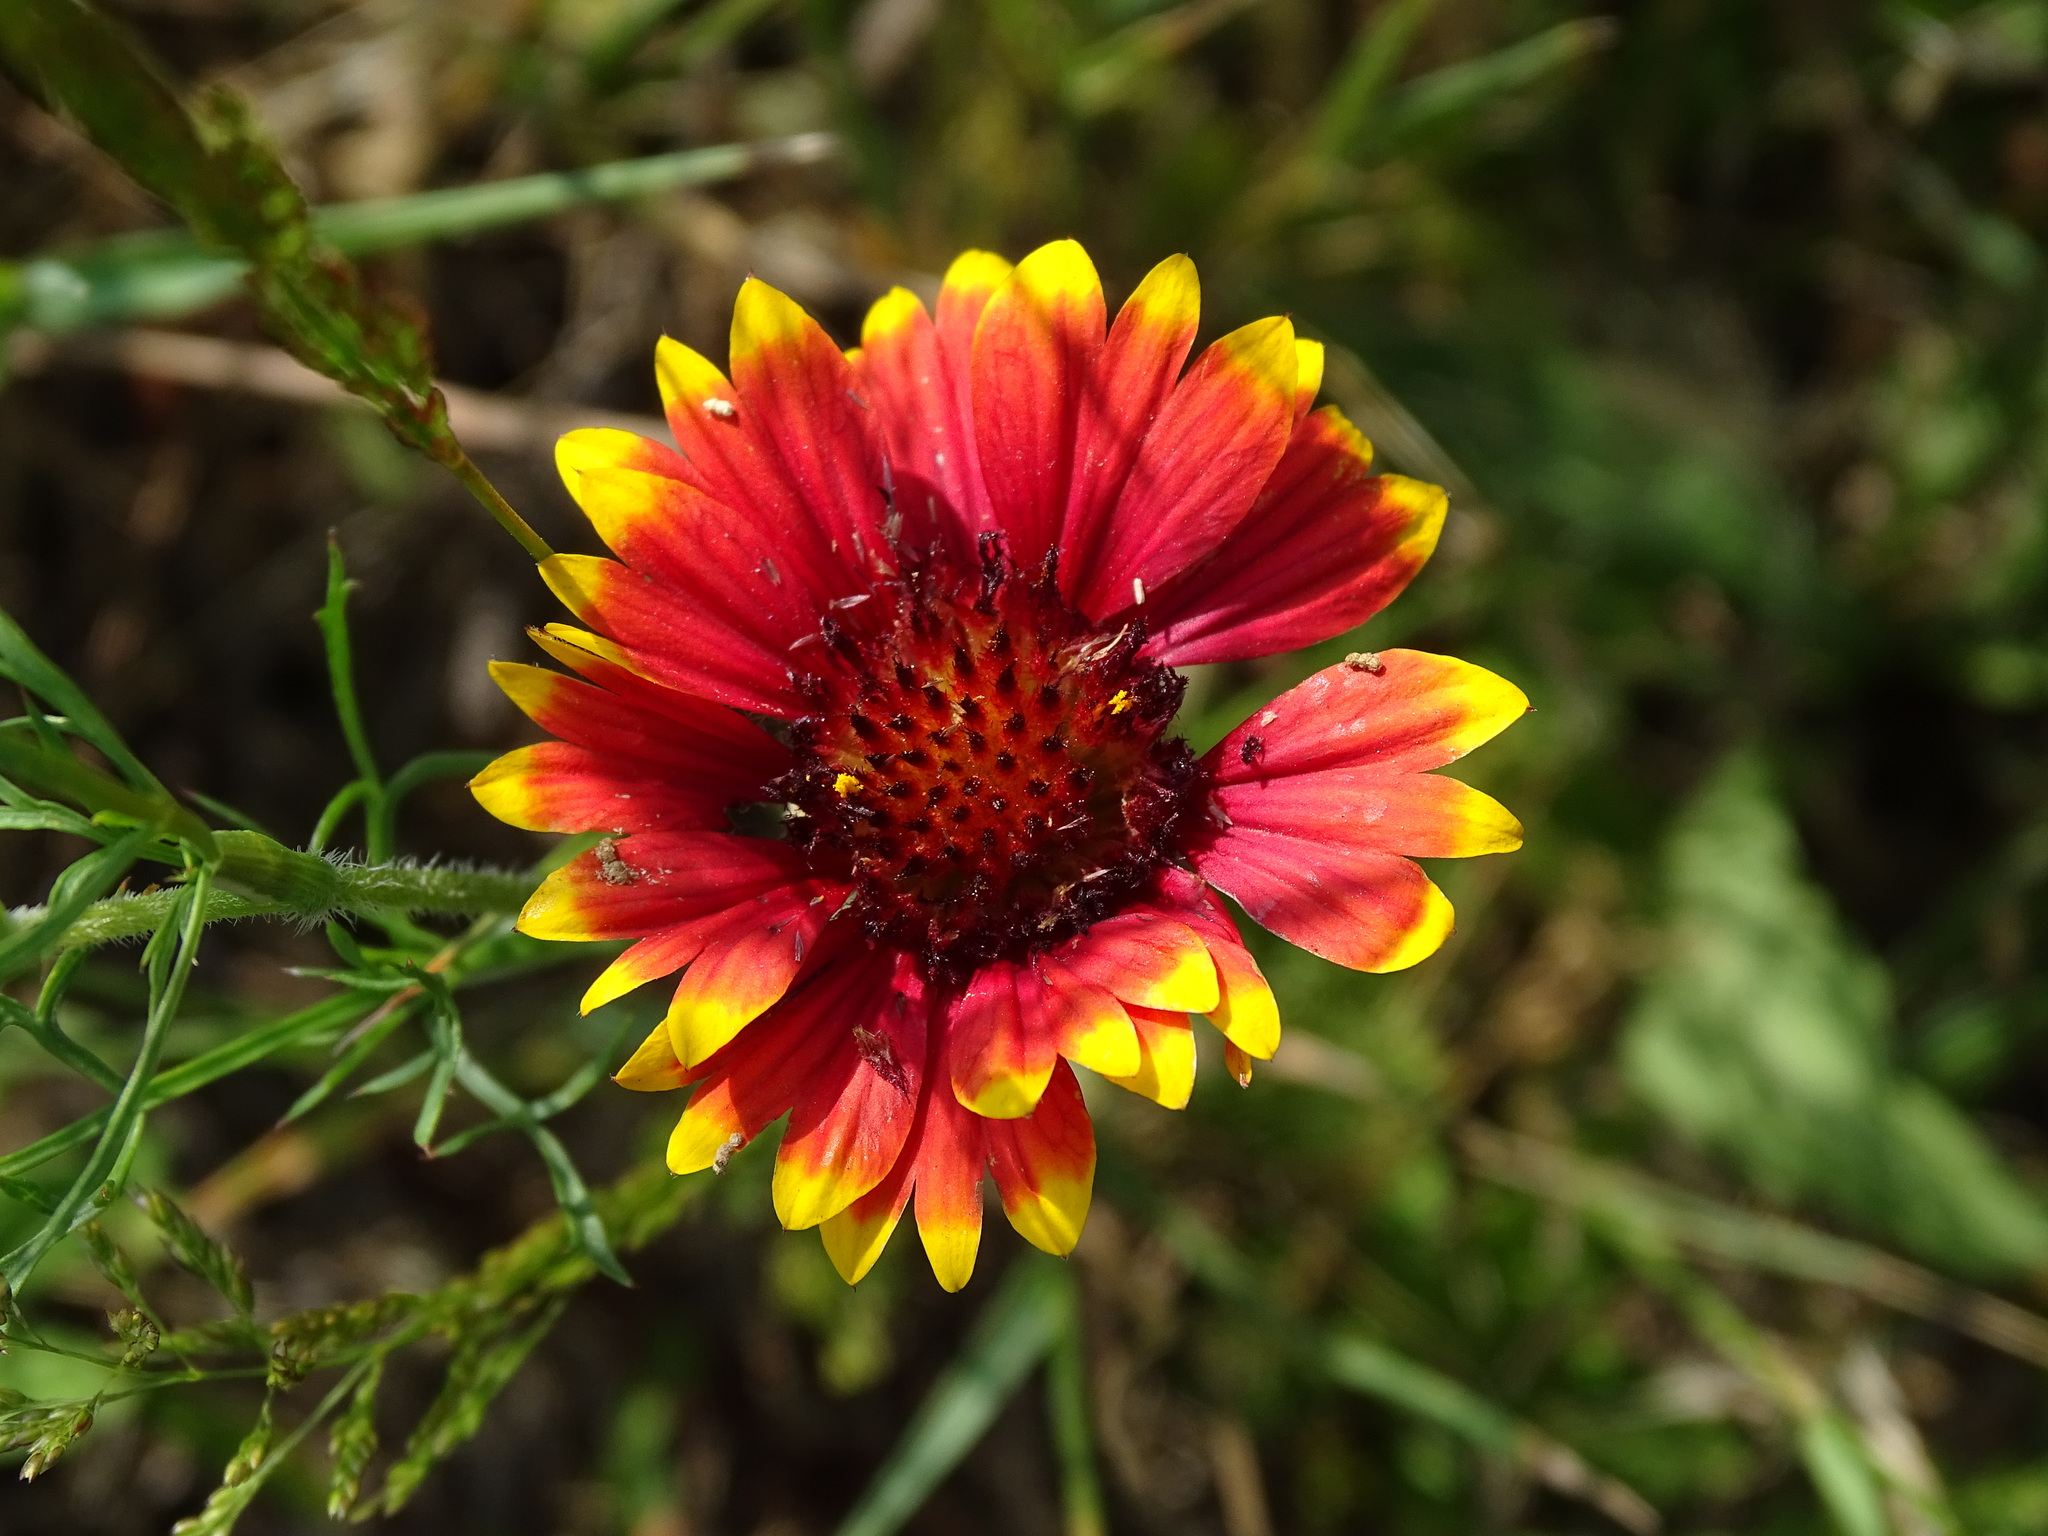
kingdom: Plantae
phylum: Tracheophyta
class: Magnoliopsida
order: Asterales
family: Asteraceae
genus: Gaillardia
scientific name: Gaillardia pulchella
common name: Firewheel
